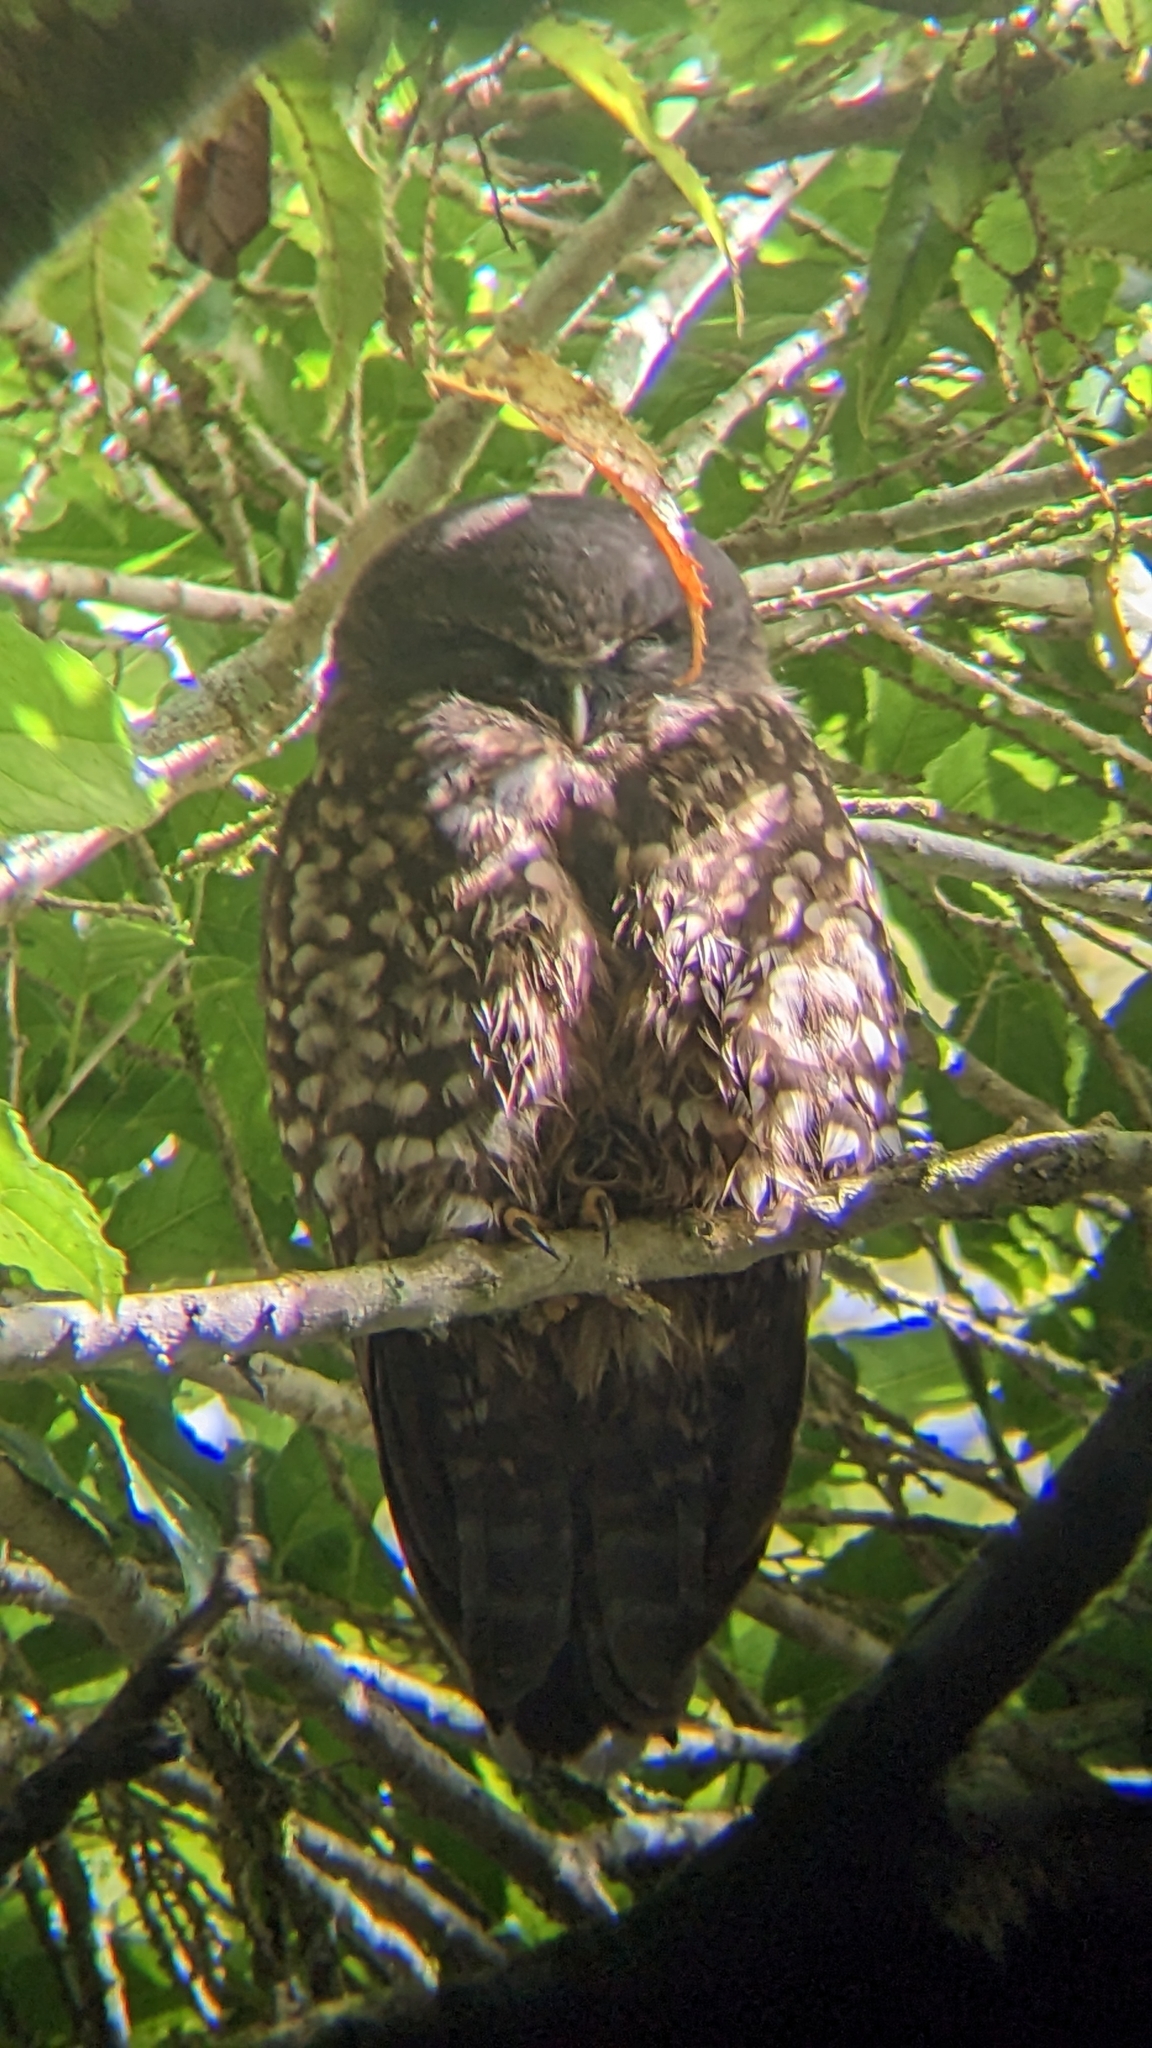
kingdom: Animalia
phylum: Chordata
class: Aves
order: Strigiformes
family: Strigidae
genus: Ninox
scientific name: Ninox novaeseelandiae
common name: Morepork
